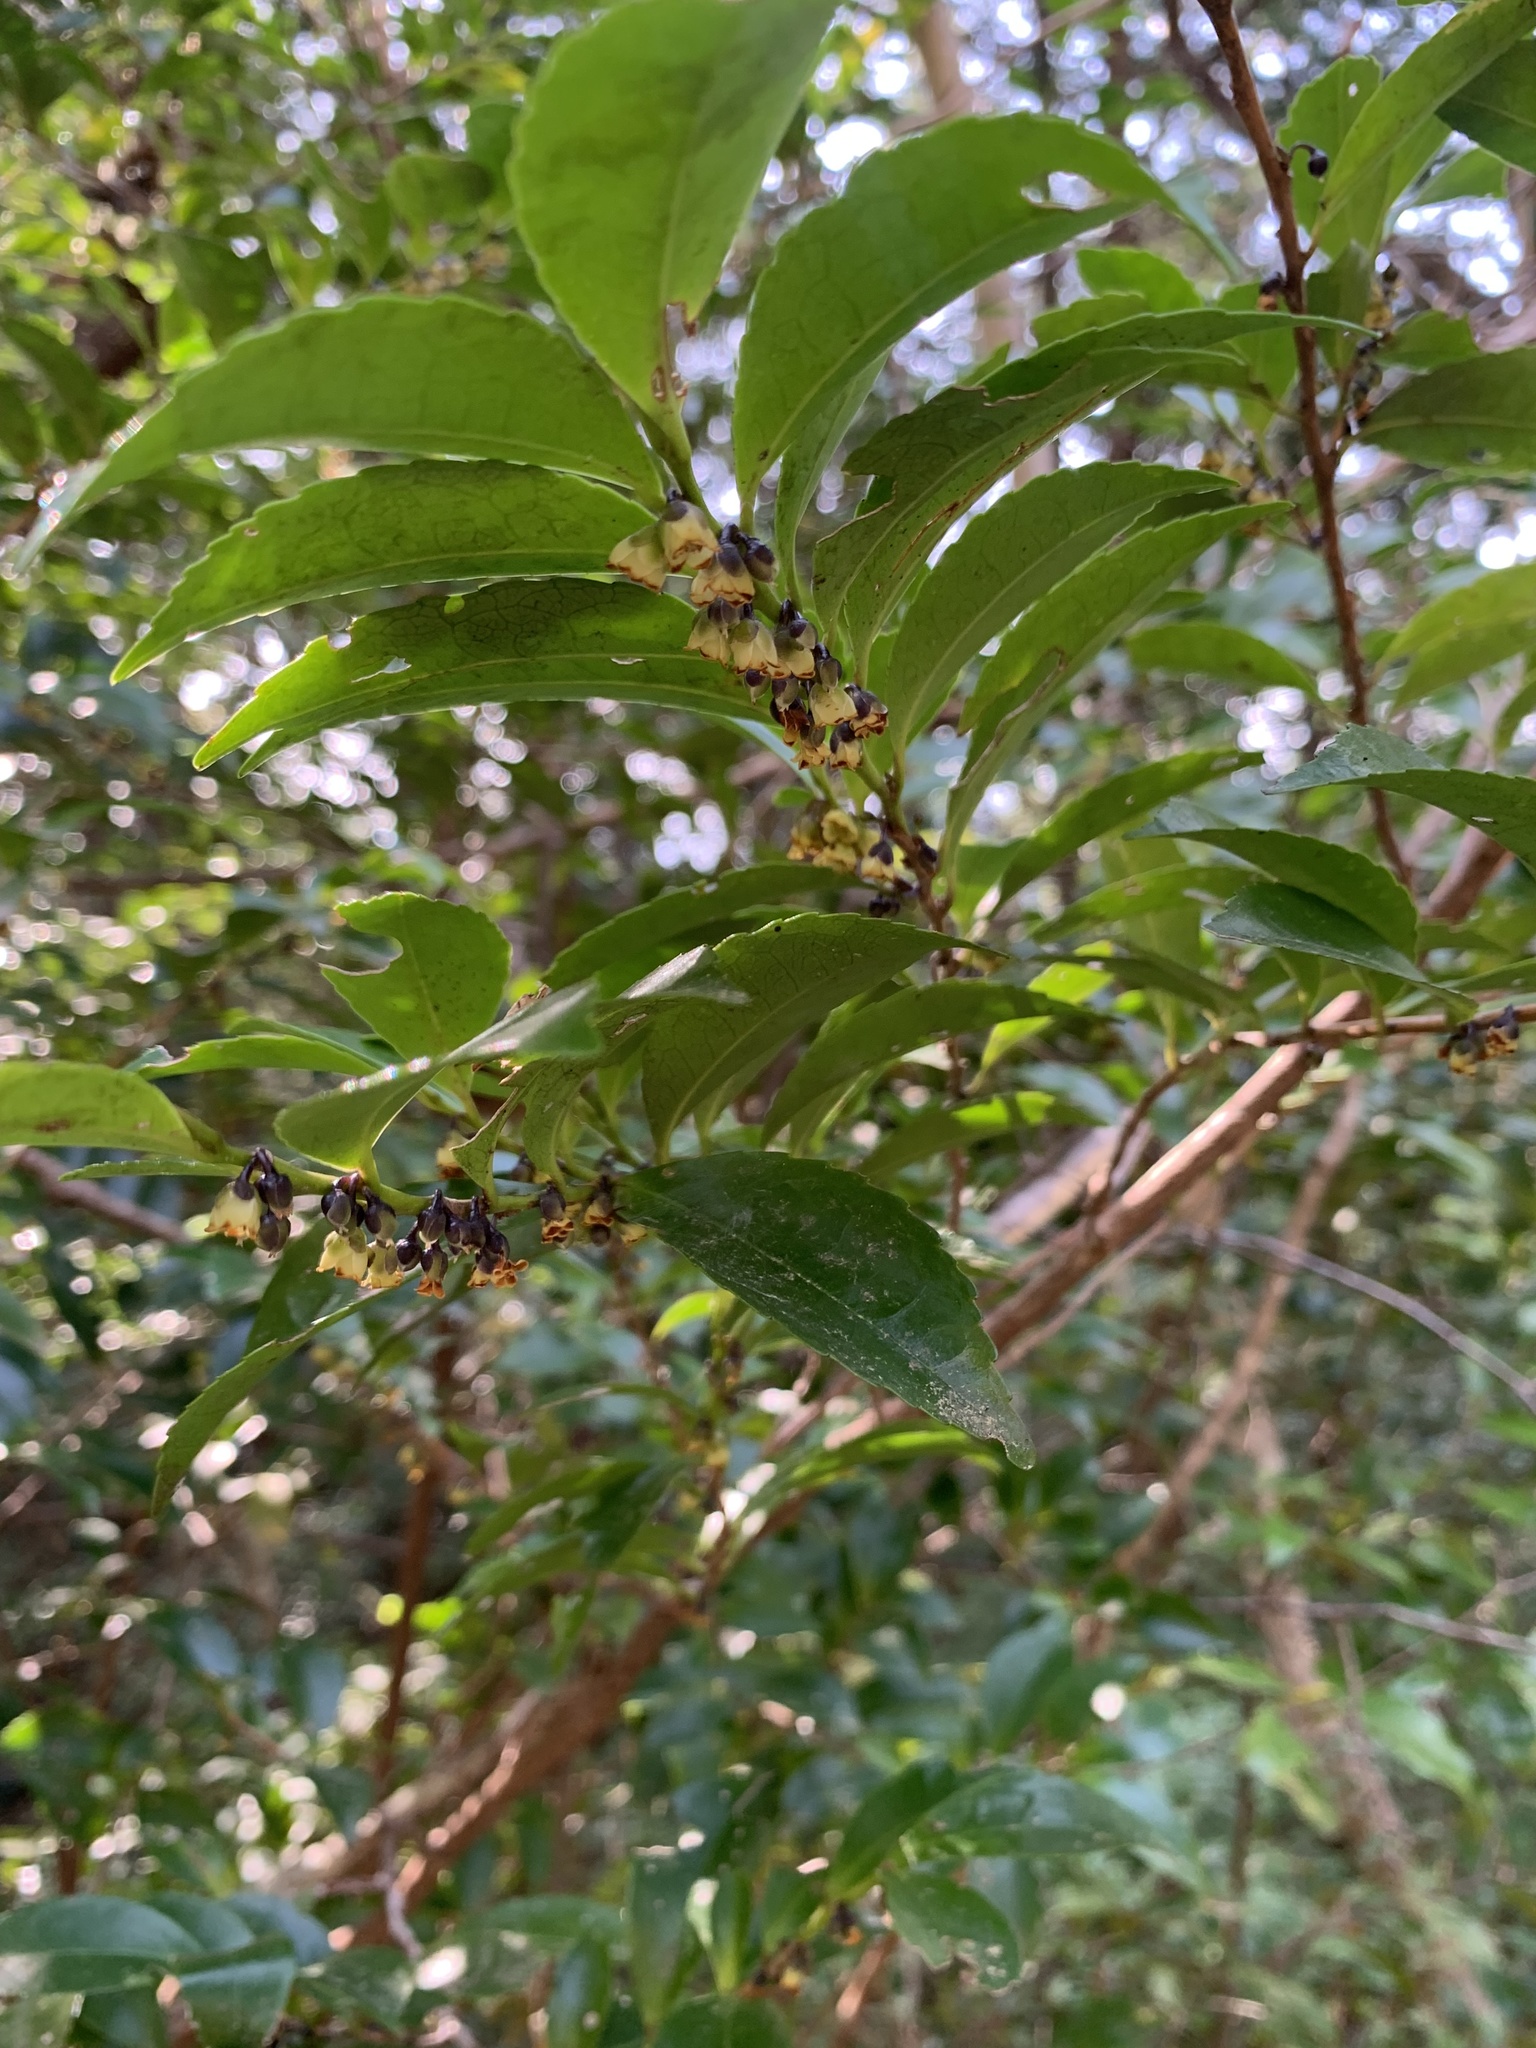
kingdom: Plantae
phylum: Tracheophyta
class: Magnoliopsida
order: Ericales
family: Pentaphylacaceae
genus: Eurya
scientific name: Eurya japonica
